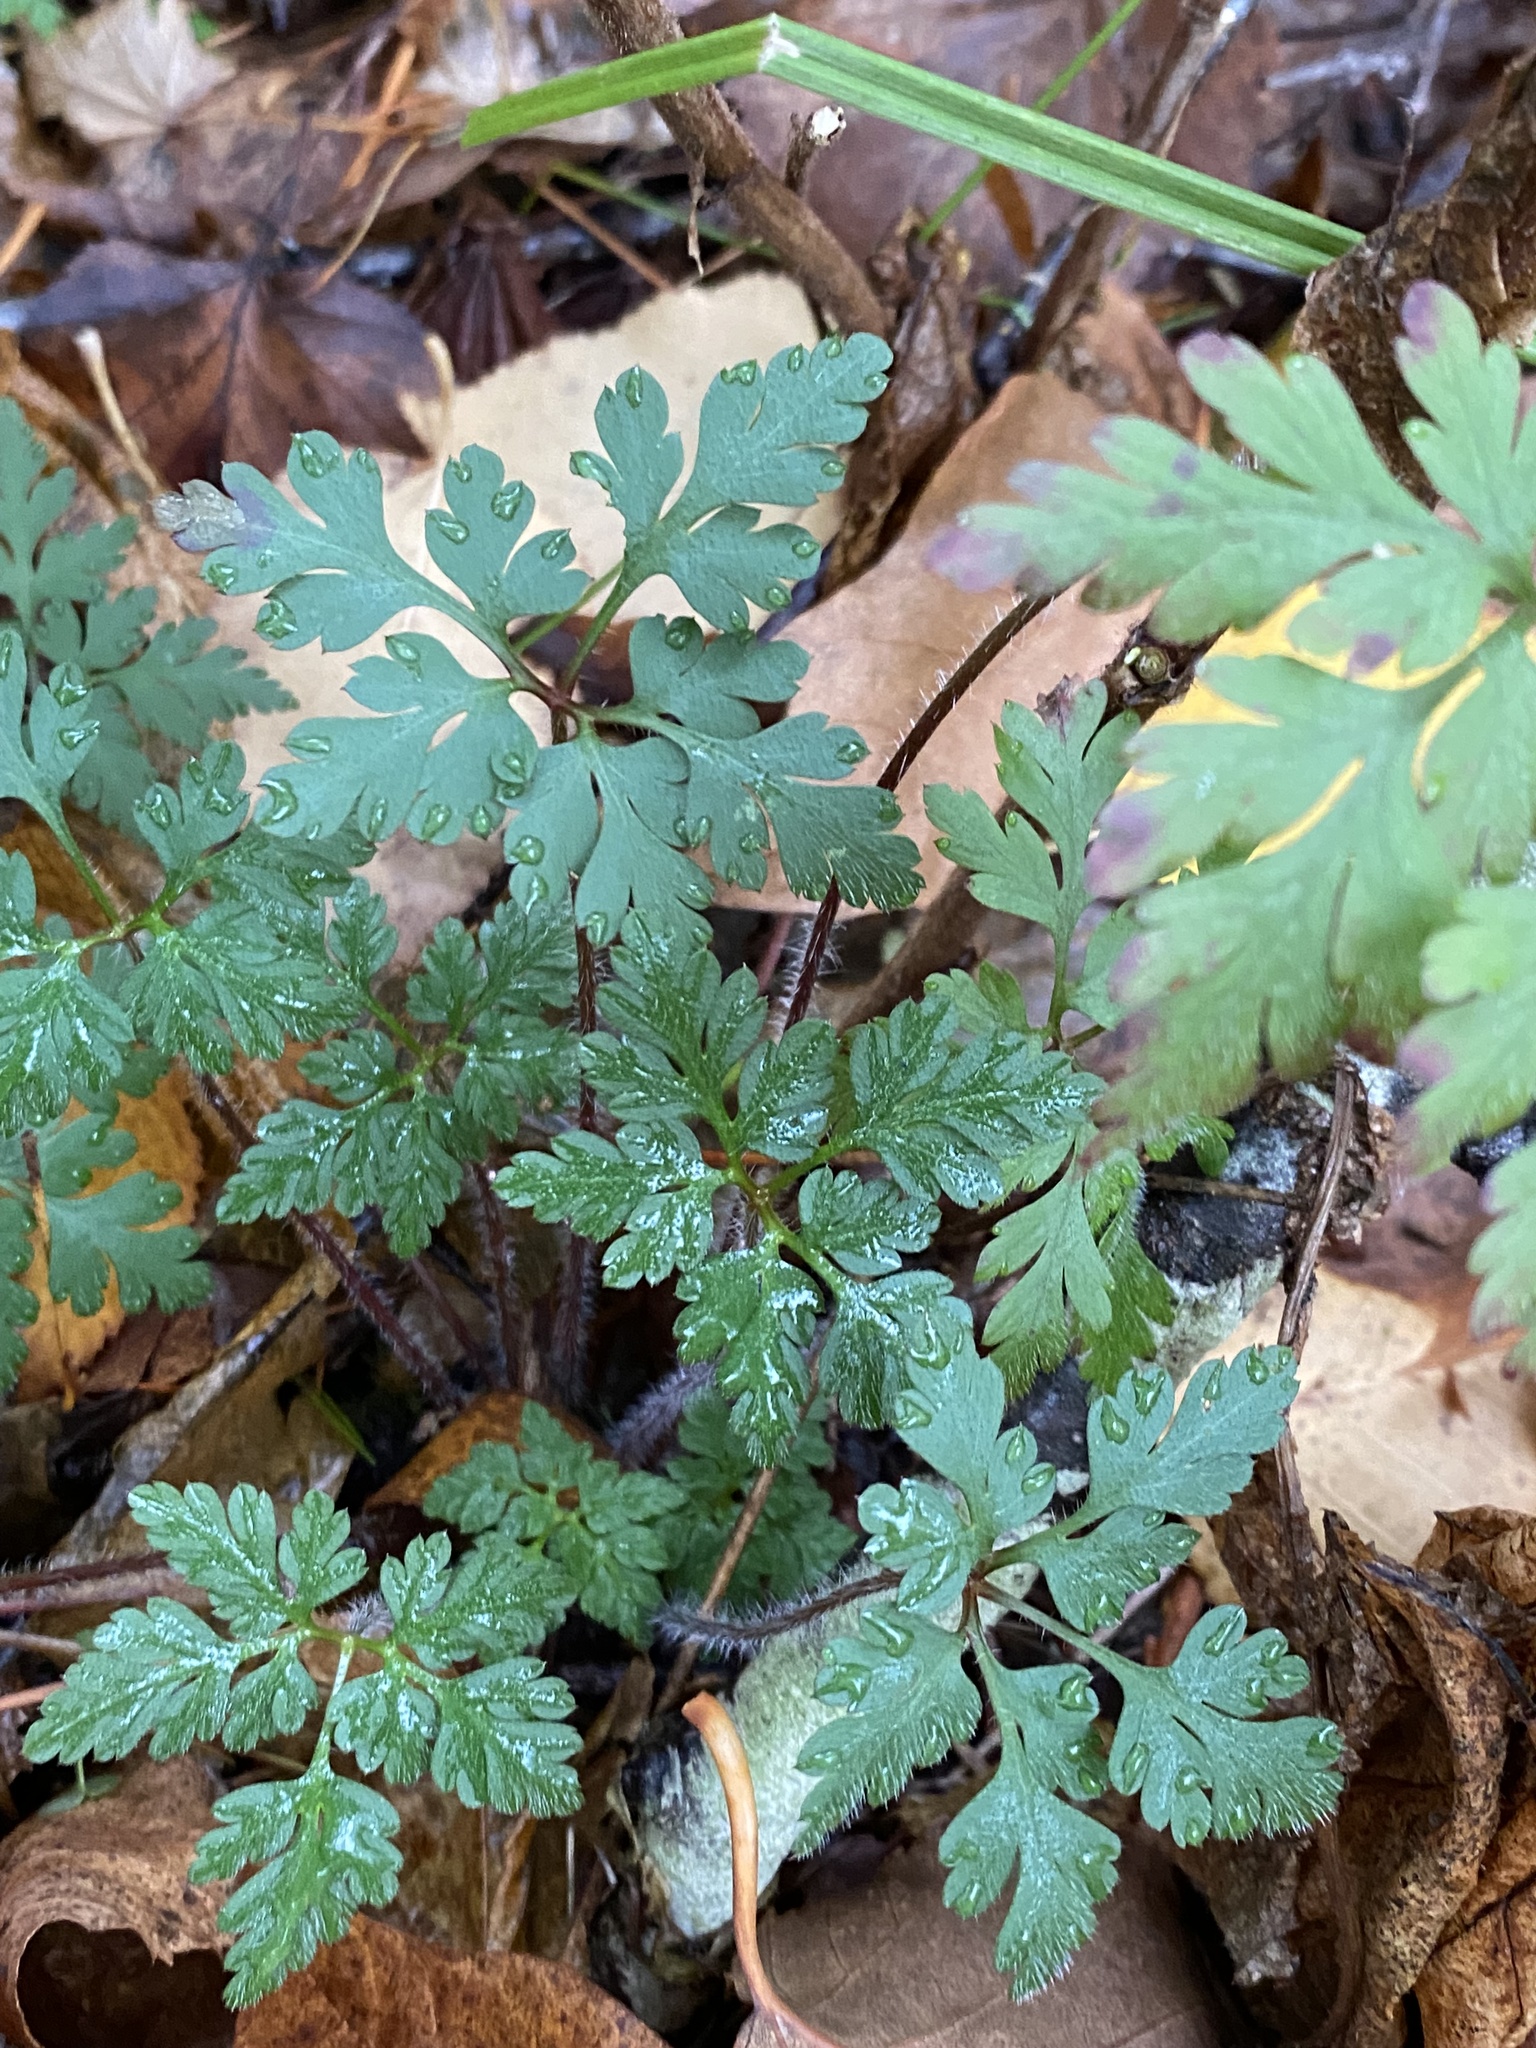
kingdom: Plantae
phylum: Tracheophyta
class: Magnoliopsida
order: Geraniales
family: Geraniaceae
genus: Geranium
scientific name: Geranium robertianum
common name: Herb-robert
